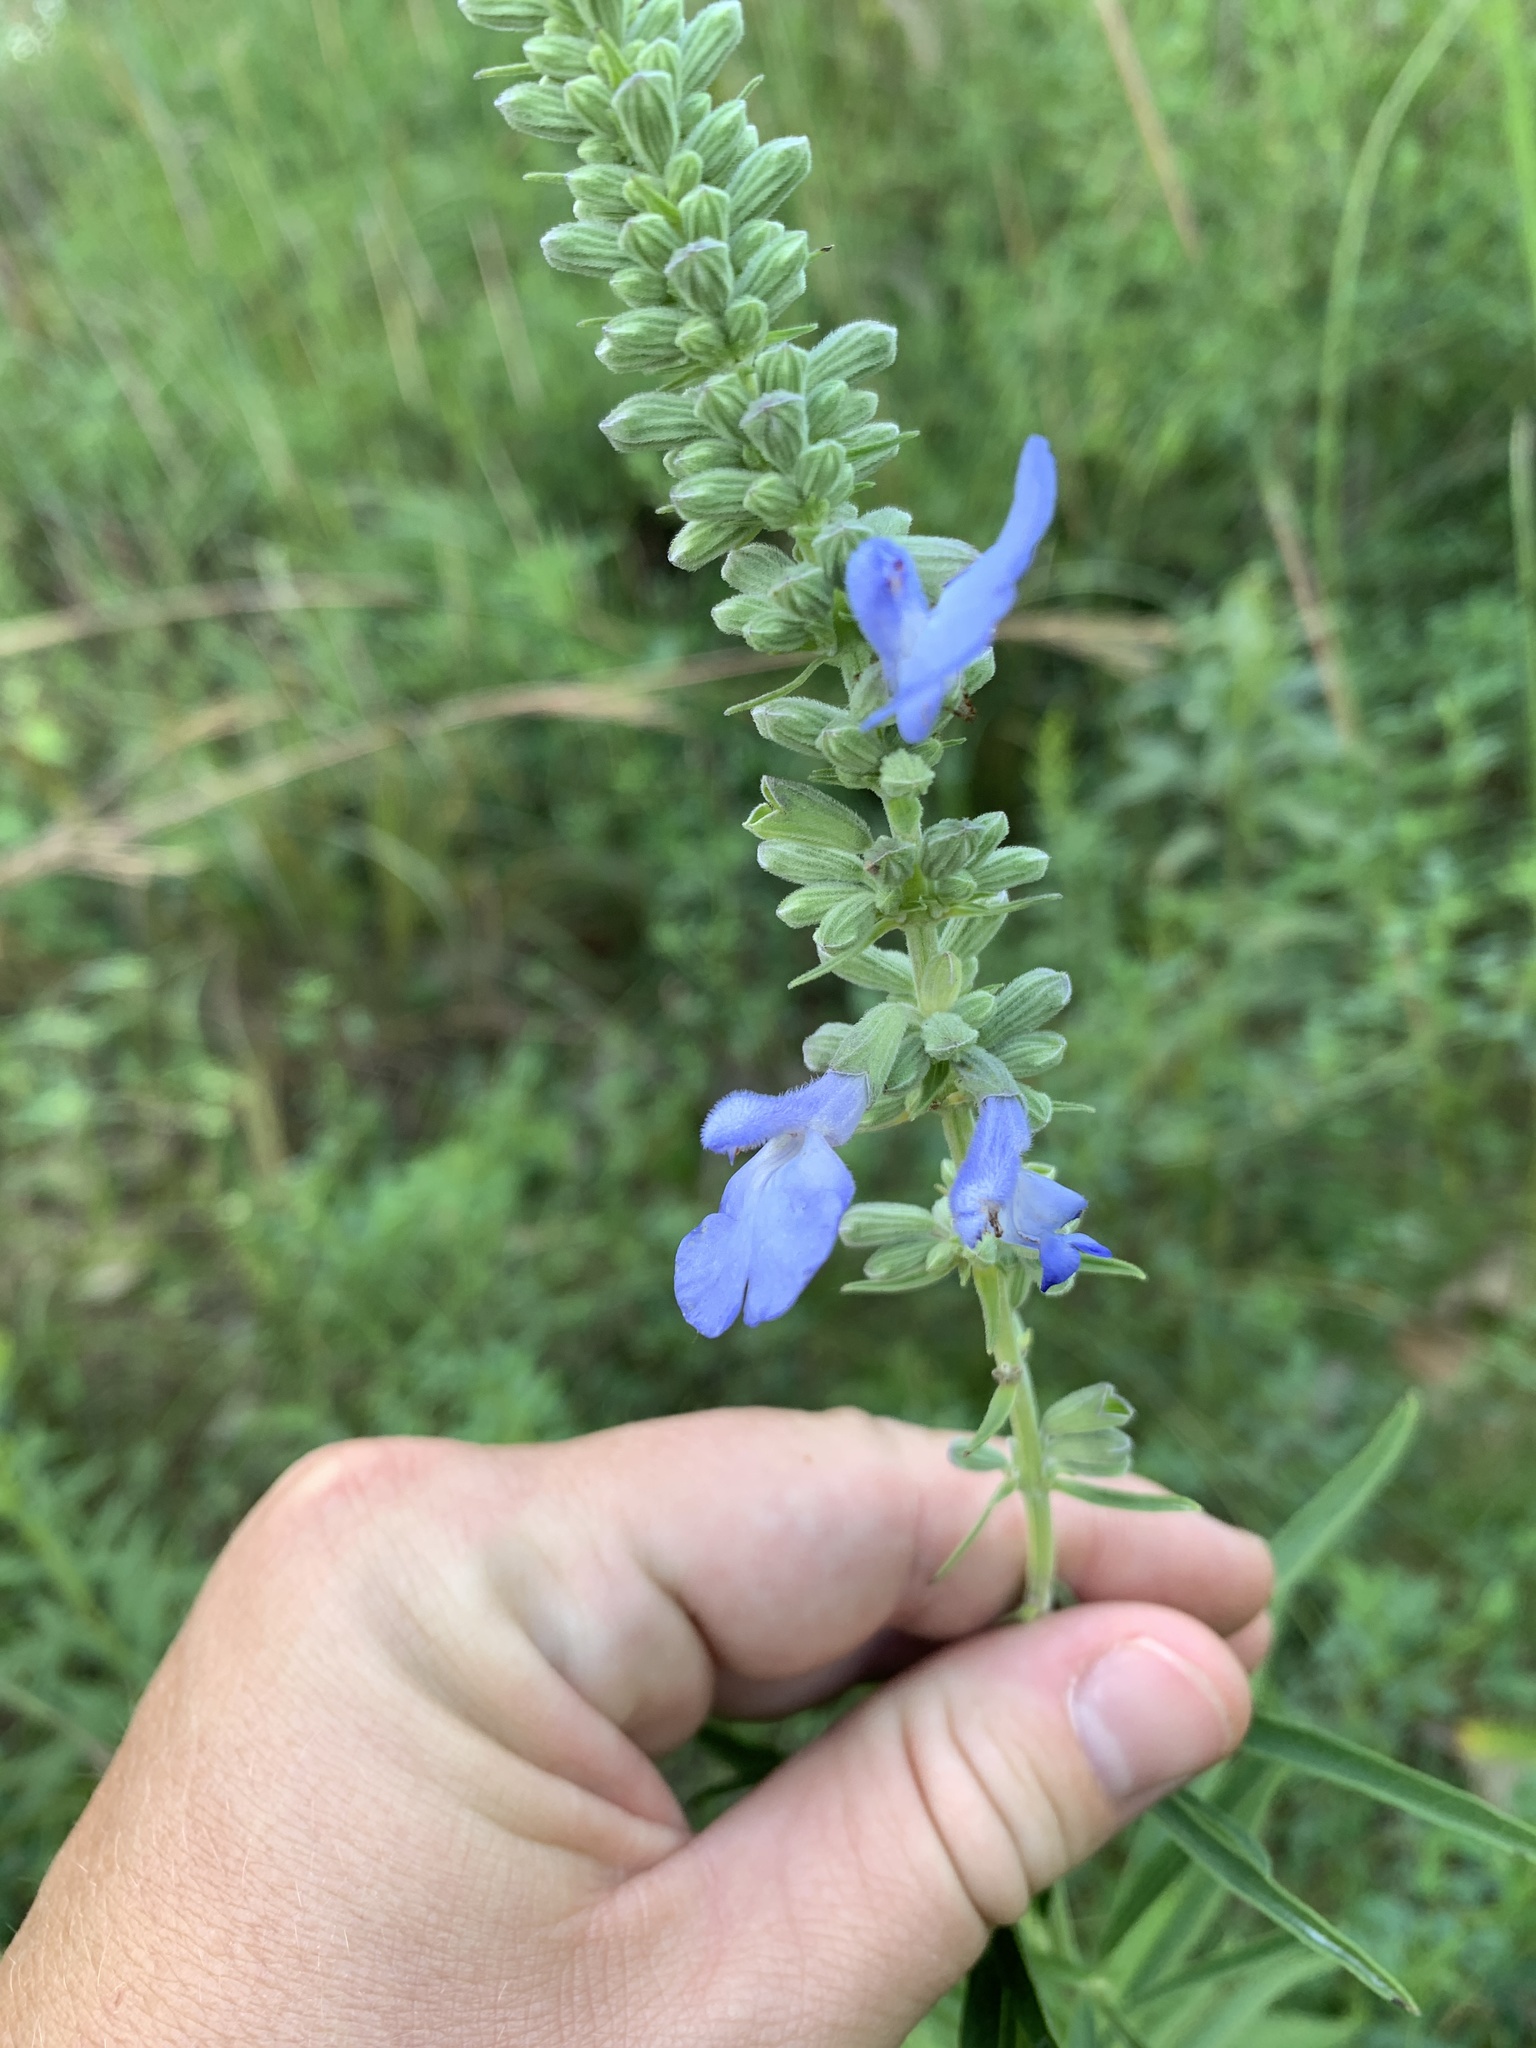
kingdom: Plantae
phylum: Tracheophyta
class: Magnoliopsida
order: Lamiales
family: Lamiaceae
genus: Salvia
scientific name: Salvia azurea
